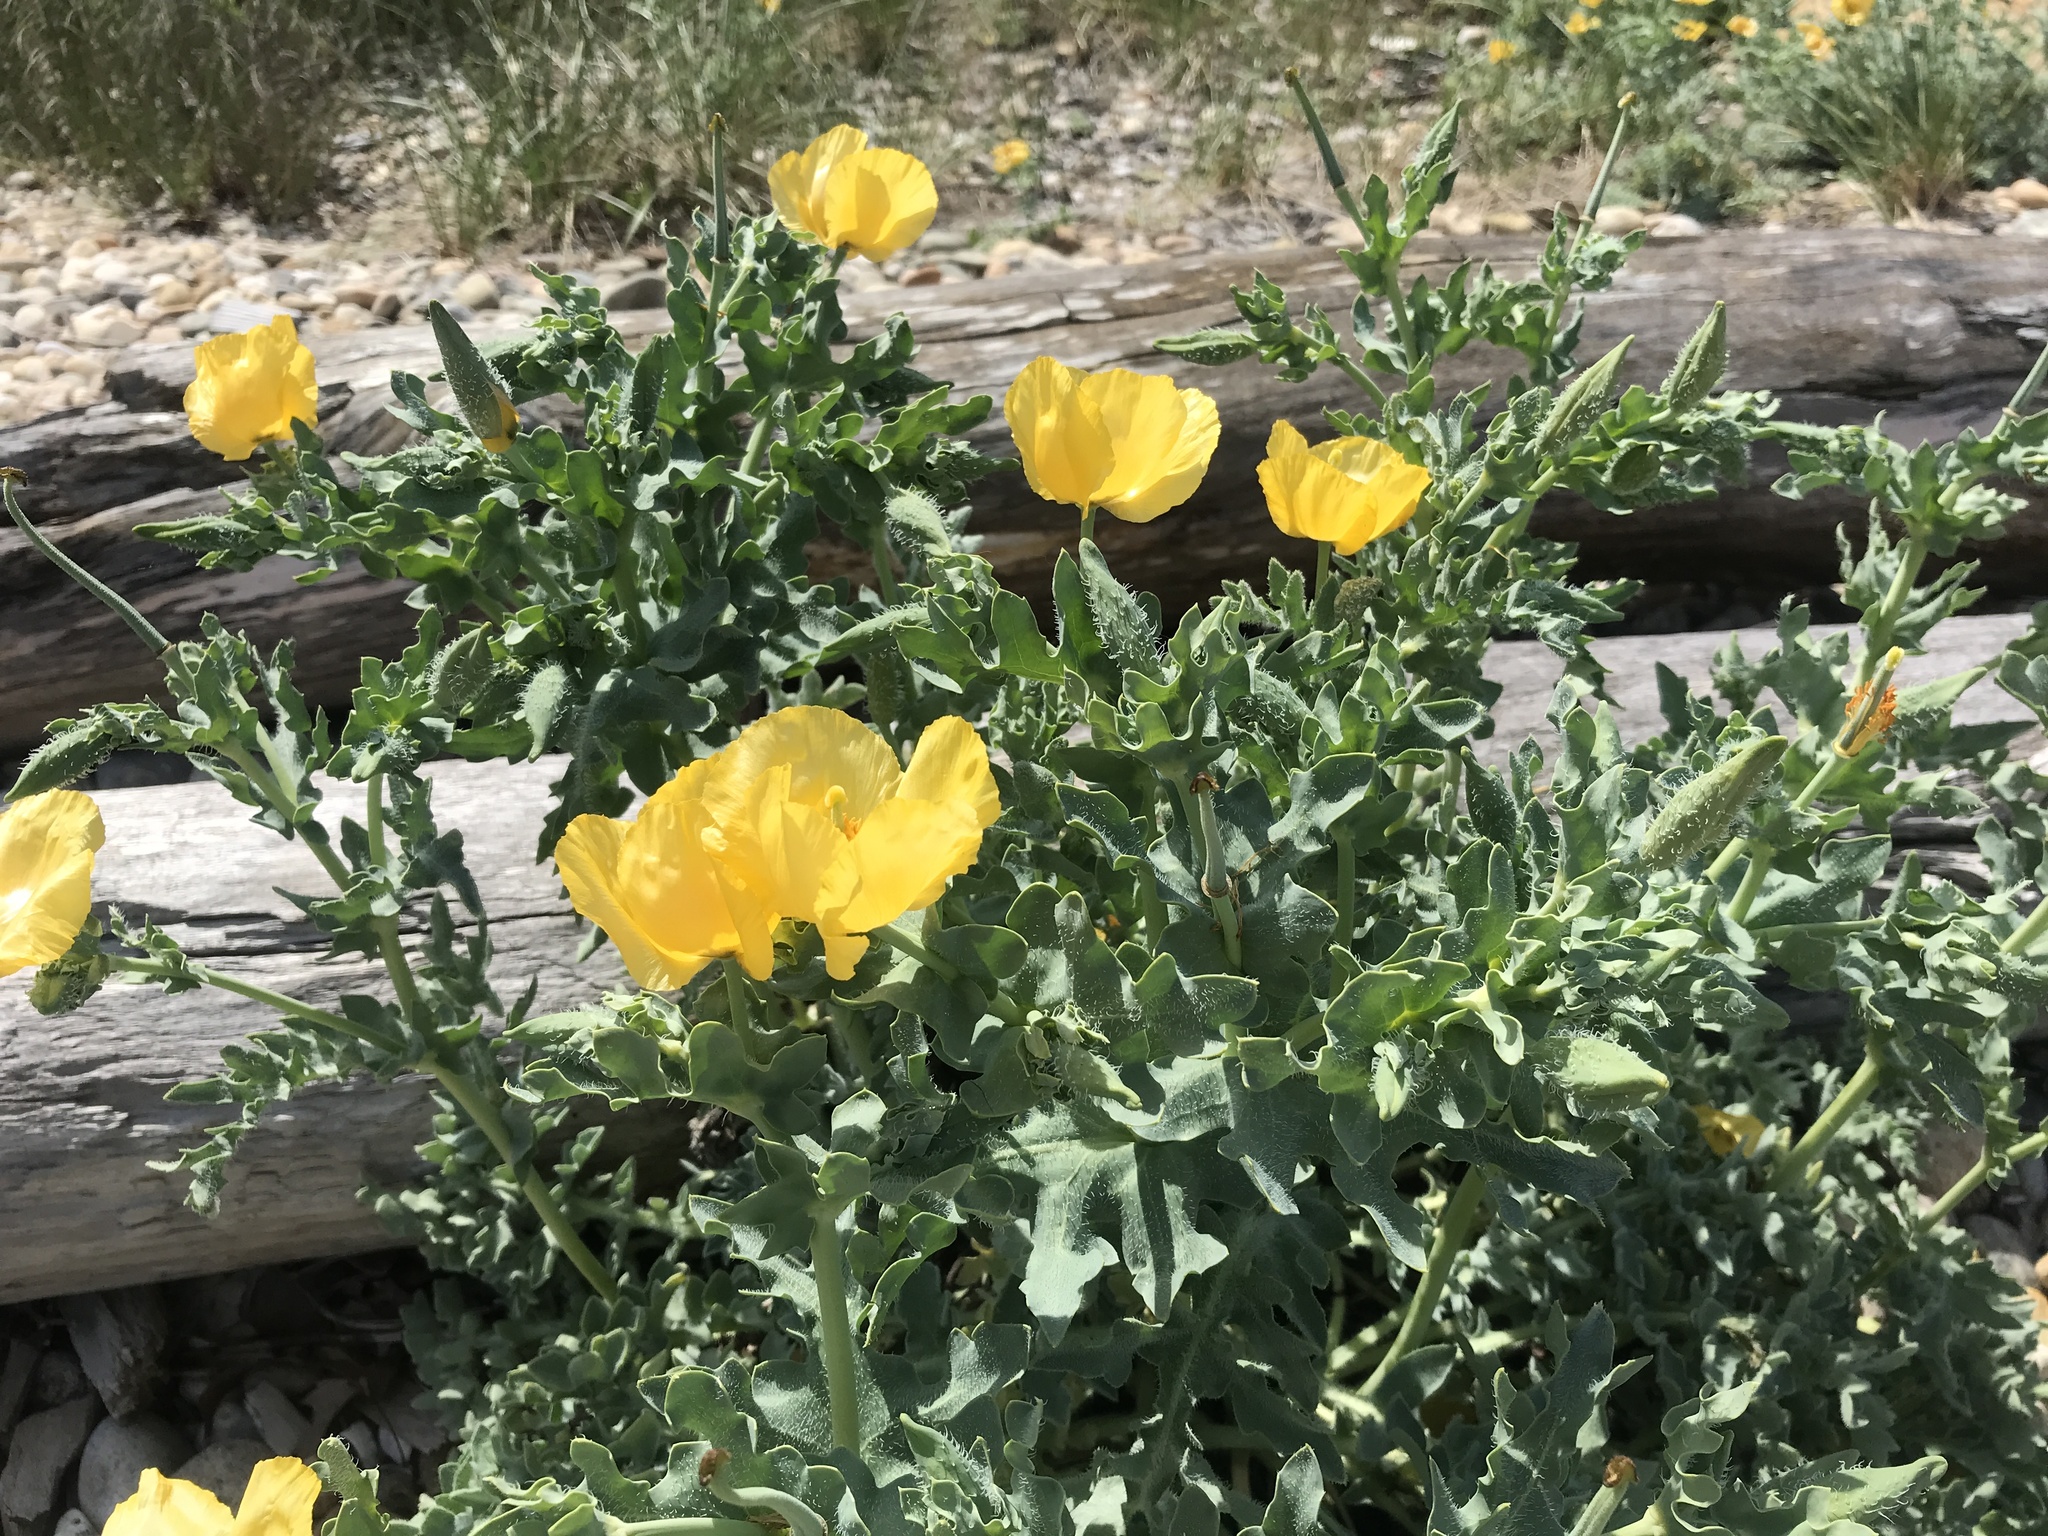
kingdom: Plantae
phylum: Tracheophyta
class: Magnoliopsida
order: Ranunculales
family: Papaveraceae
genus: Glaucium
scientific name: Glaucium flavum
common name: Yellow horned-poppy
